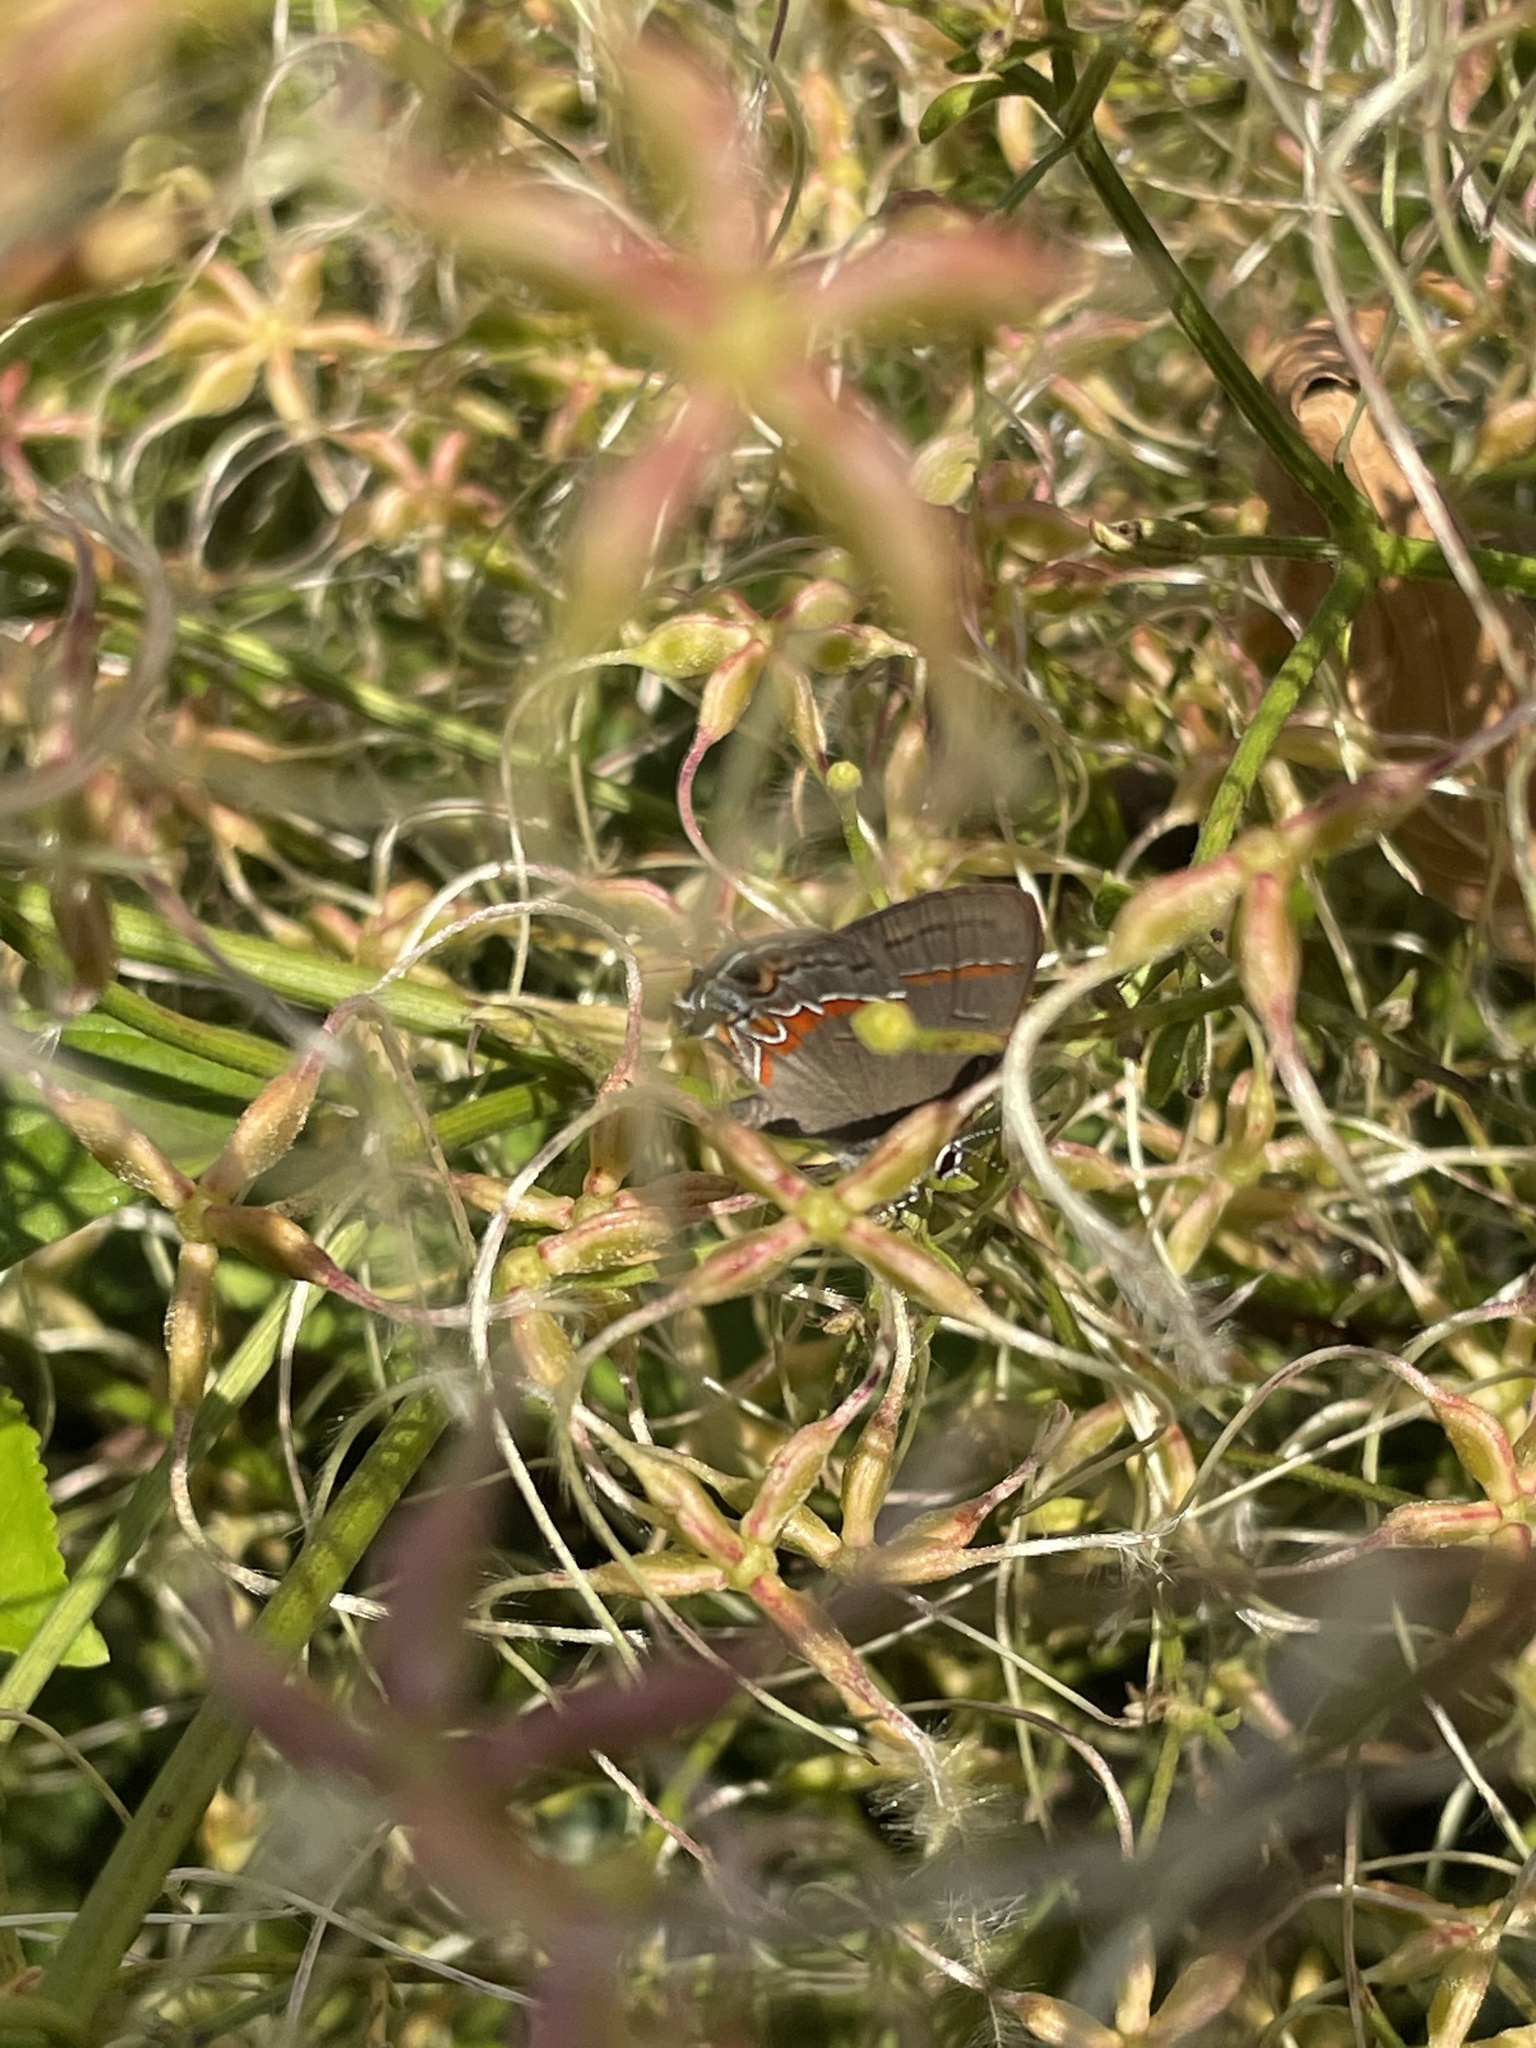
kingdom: Animalia
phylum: Arthropoda
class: Insecta
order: Lepidoptera
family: Lycaenidae
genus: Calycopis
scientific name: Calycopis cecrops
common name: Red-banded hairstreak
